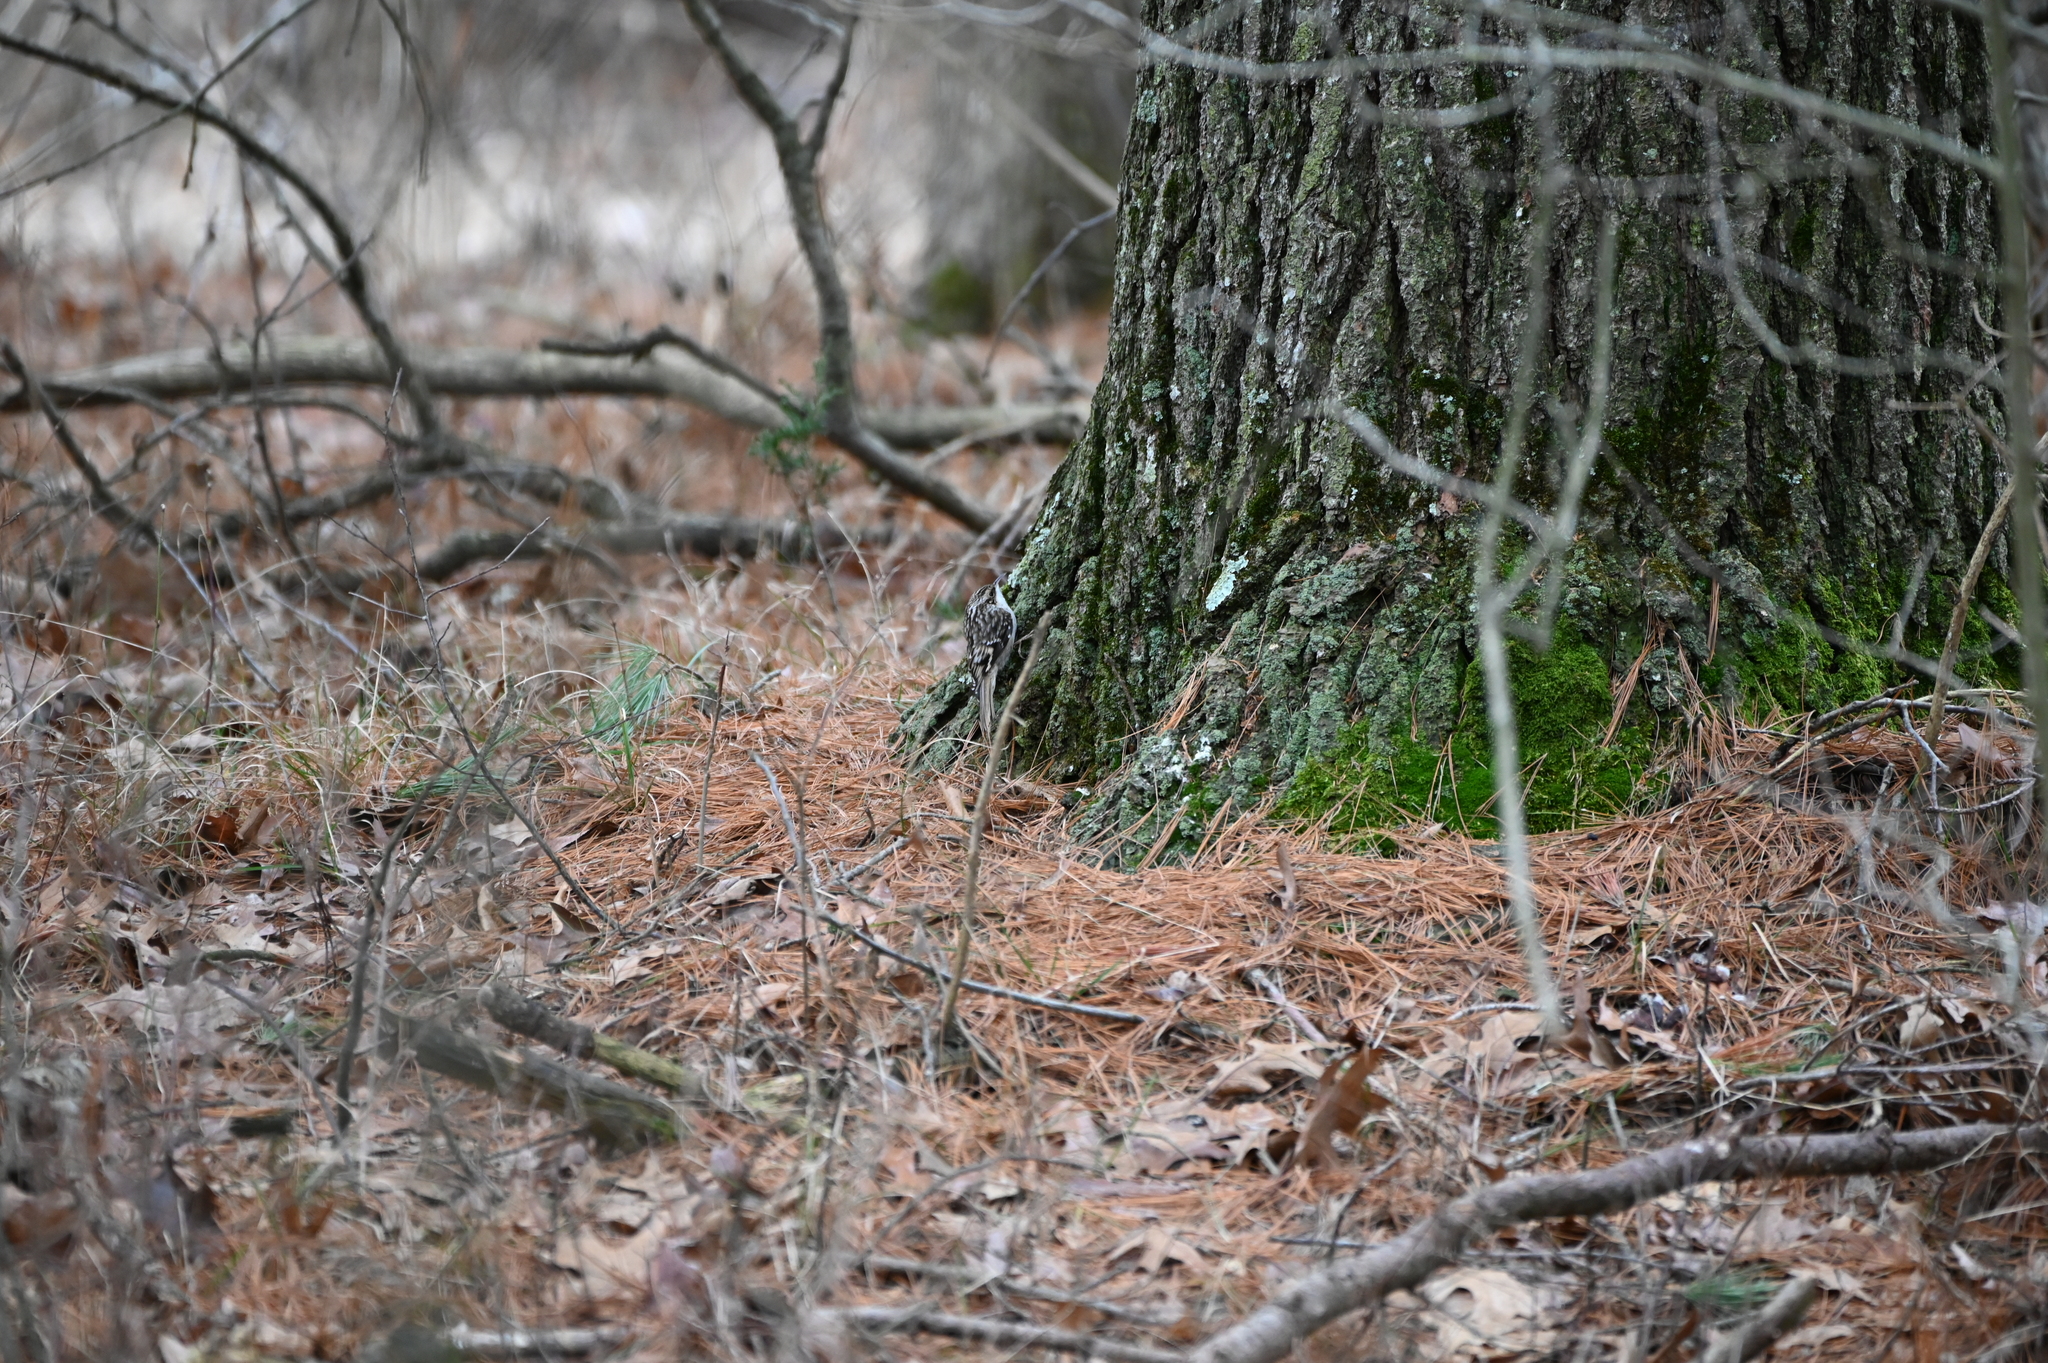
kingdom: Animalia
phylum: Chordata
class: Aves
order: Passeriformes
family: Certhiidae
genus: Certhia
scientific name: Certhia americana
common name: Brown creeper
